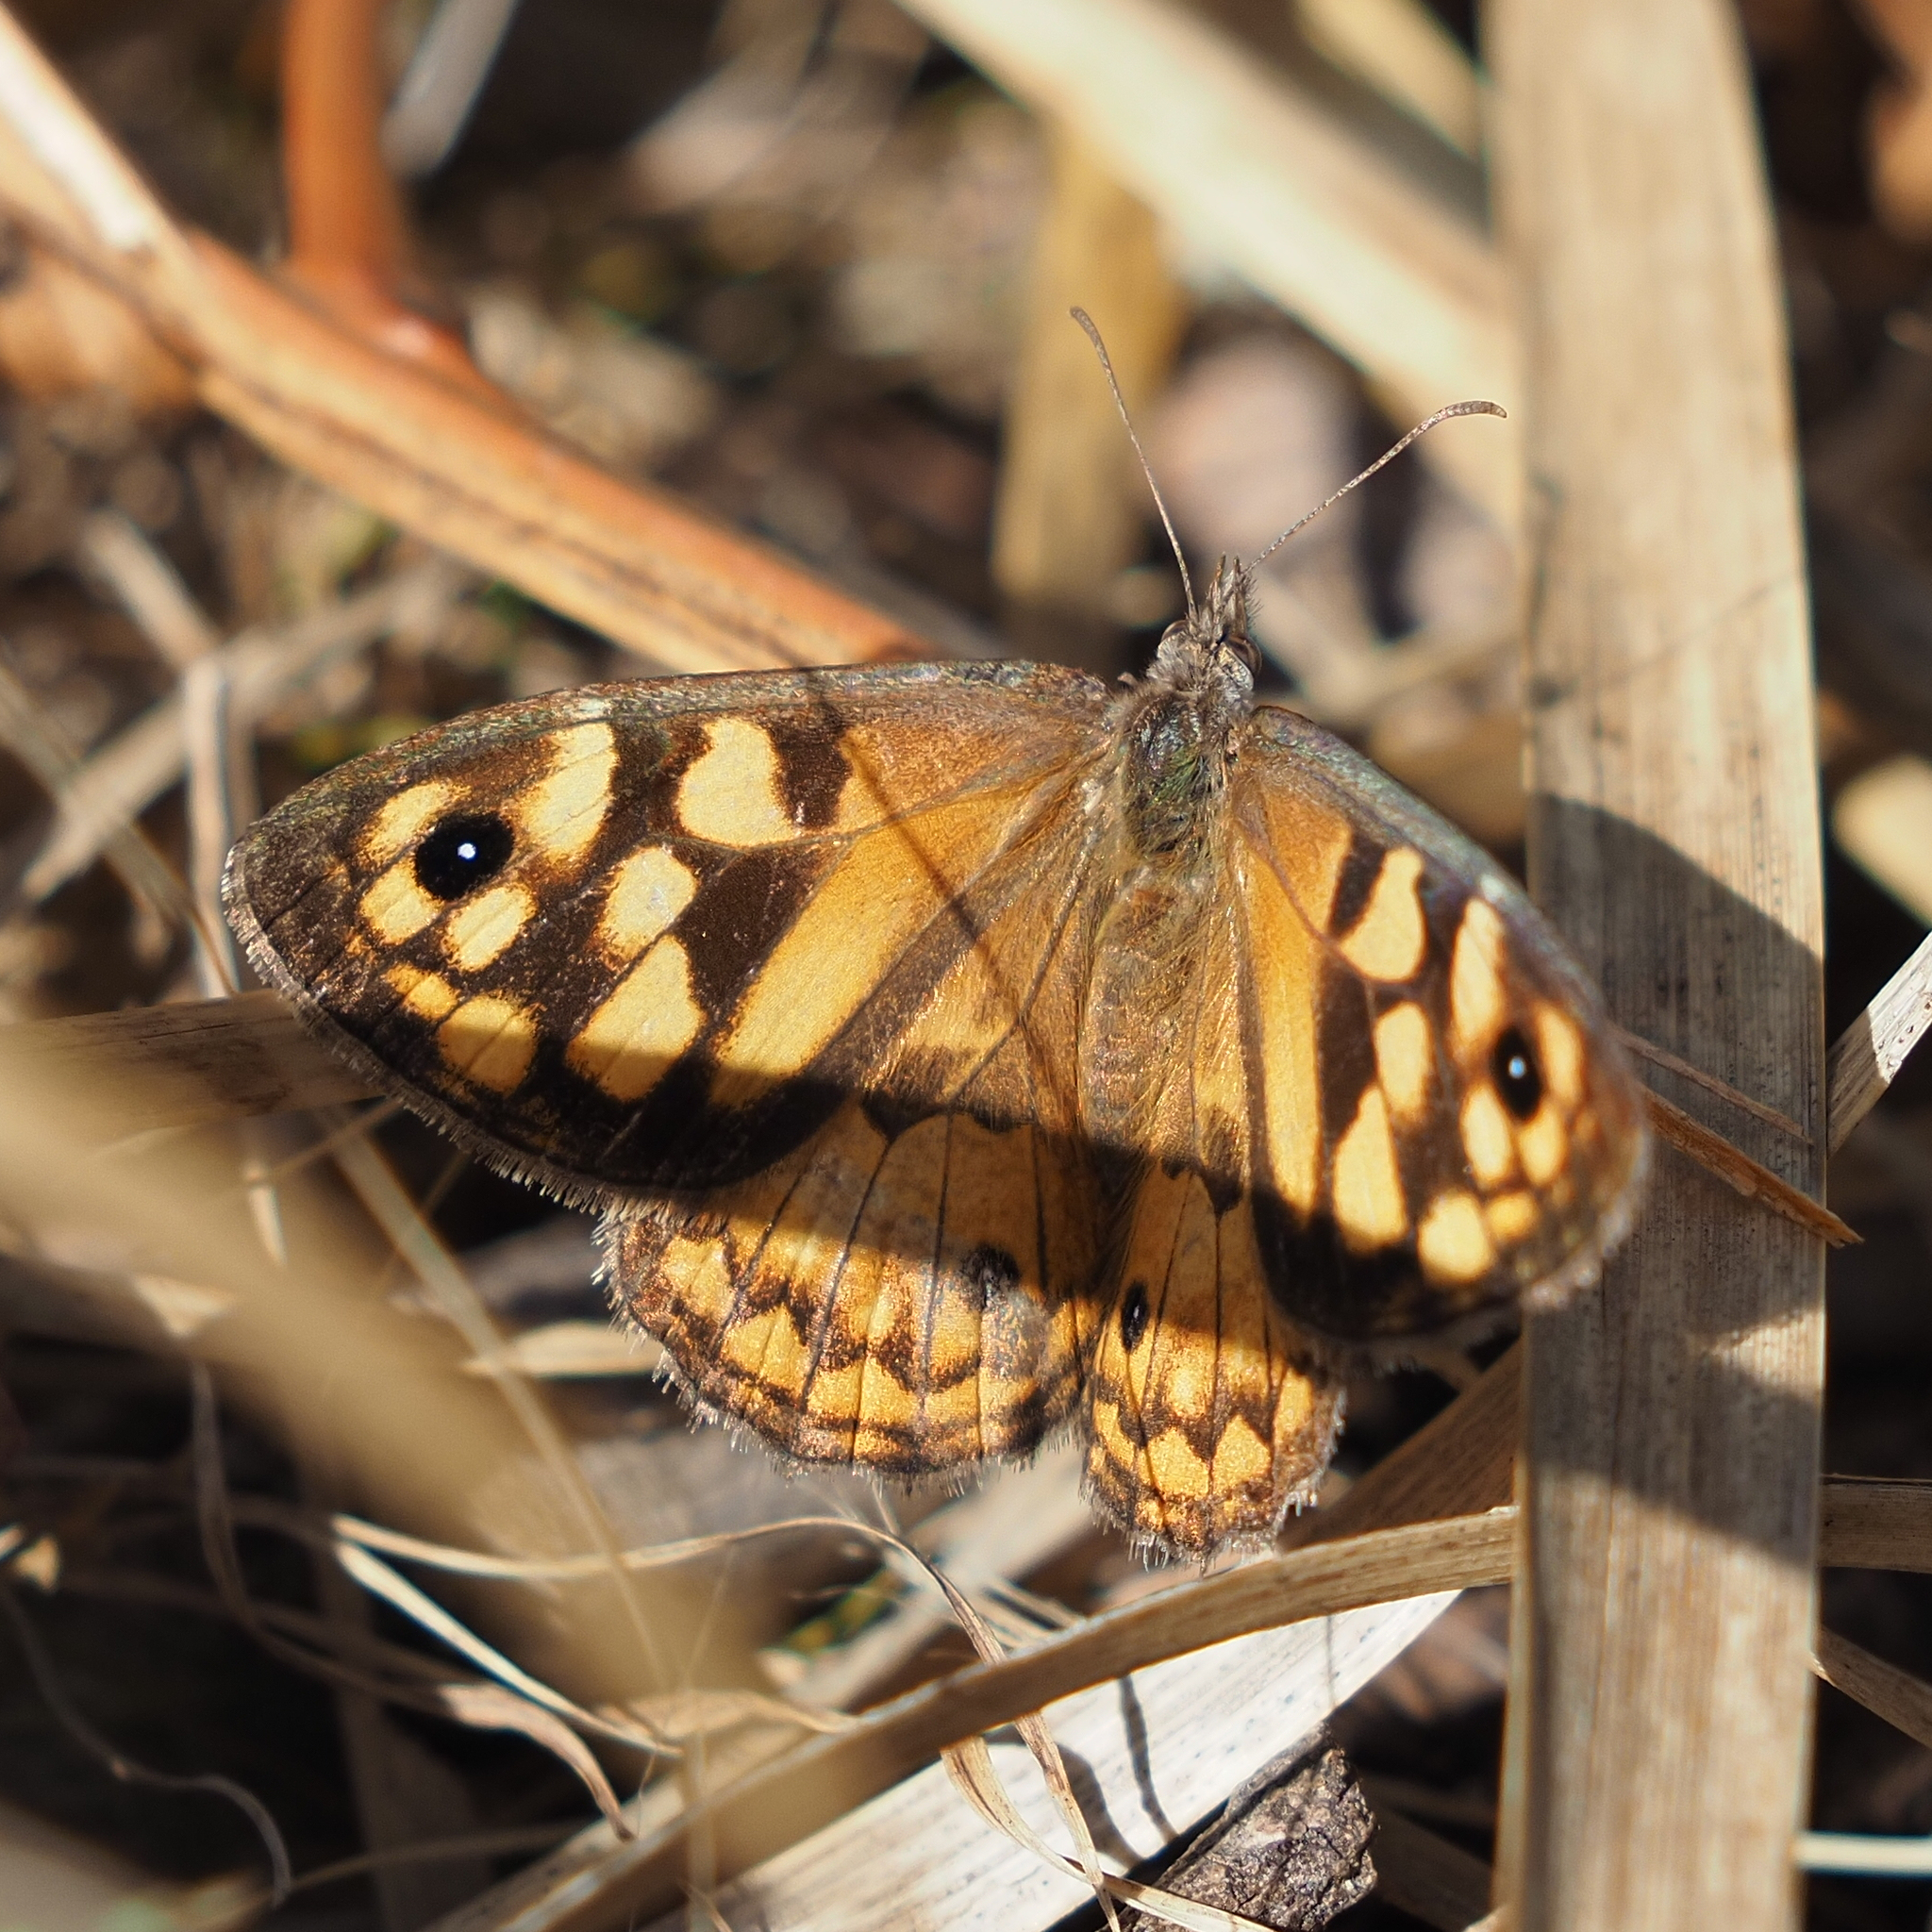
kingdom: Animalia
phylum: Arthropoda
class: Insecta
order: Lepidoptera
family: Nymphalidae
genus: Geitoneura
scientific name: Geitoneura klugii
